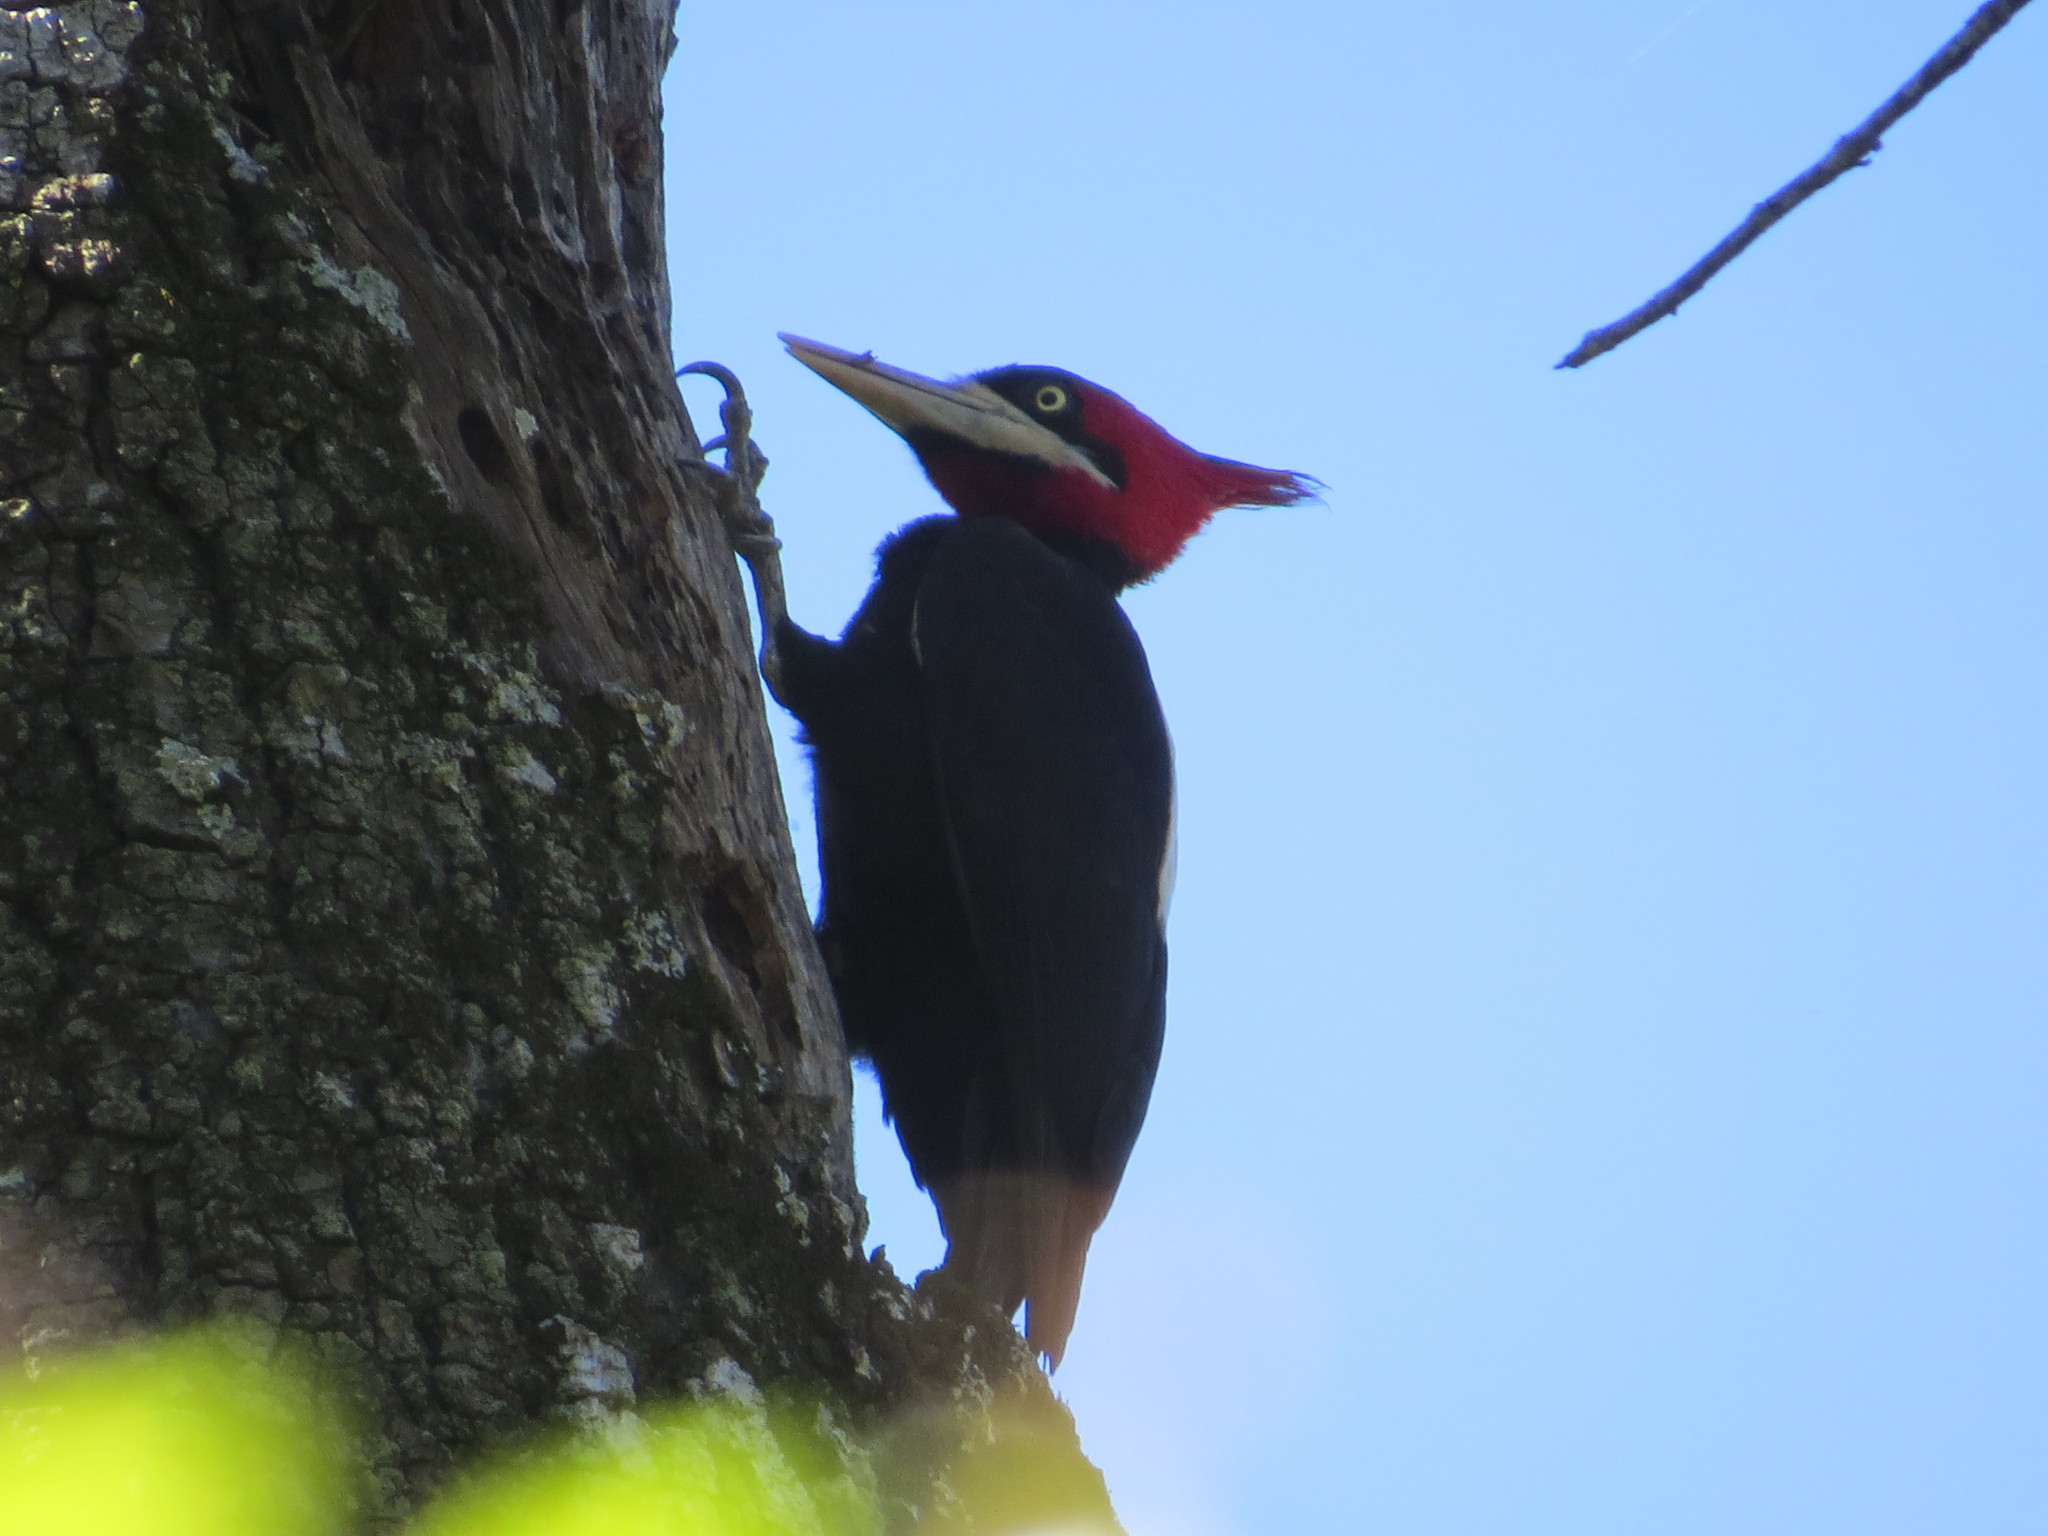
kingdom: Animalia
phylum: Chordata
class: Aves
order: Piciformes
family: Picidae
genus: Campephilus
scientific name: Campephilus leucopogon
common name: Cream-backed woodpecker
